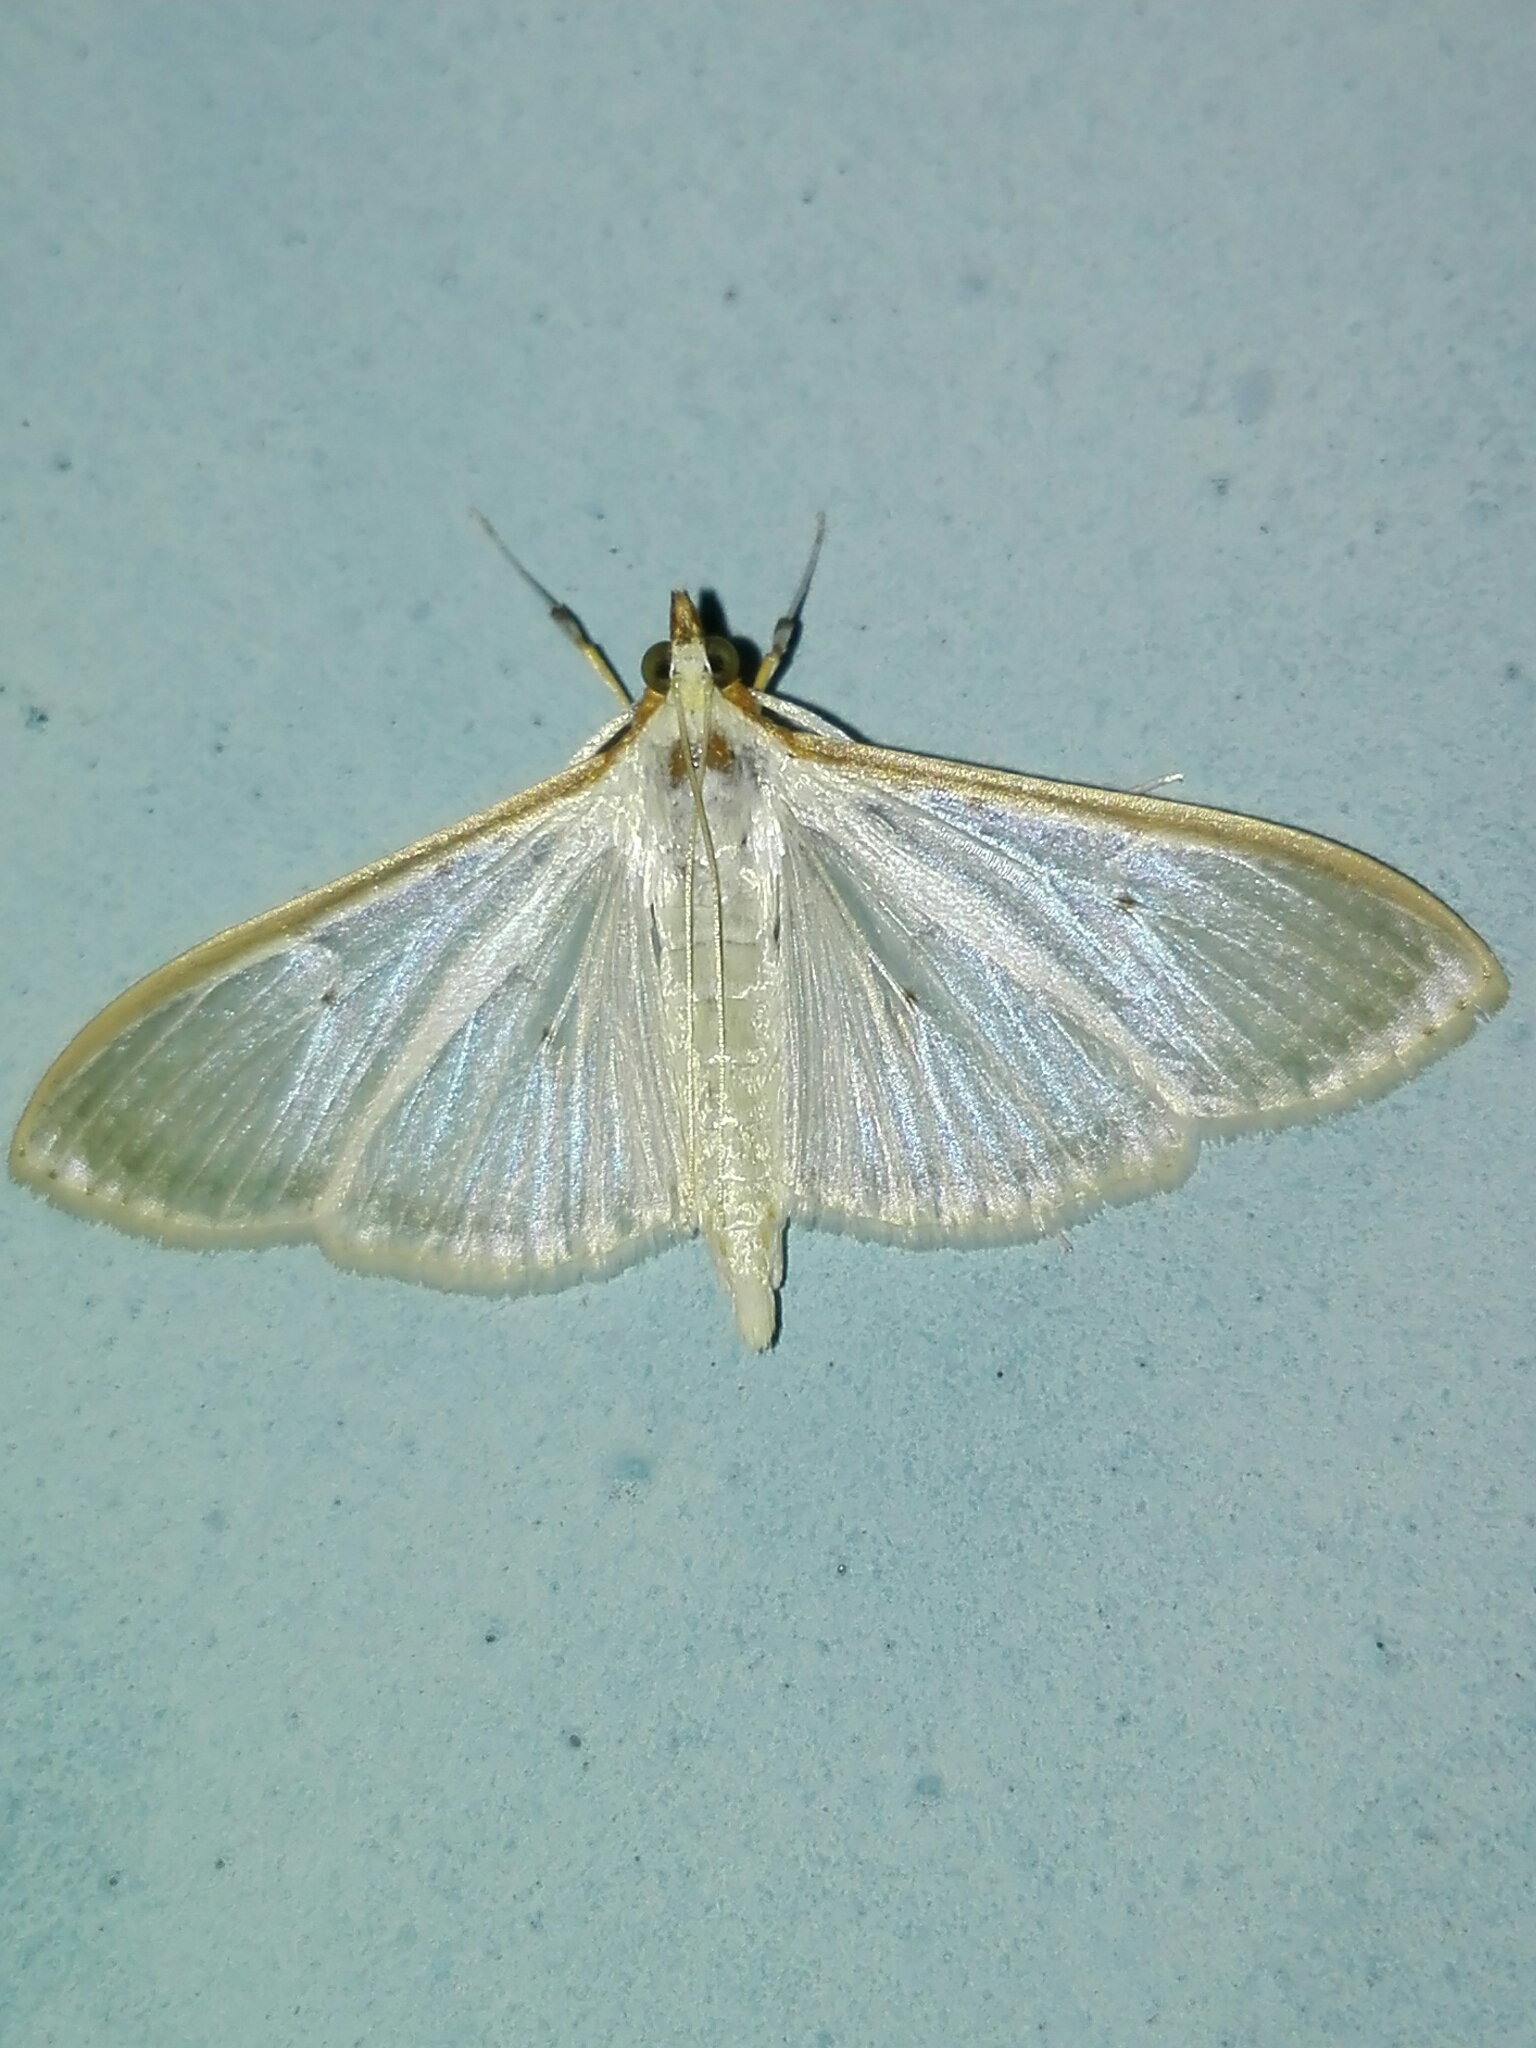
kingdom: Animalia
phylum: Arthropoda
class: Insecta
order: Lepidoptera
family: Crambidae
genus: Palpita
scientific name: Palpita quadristigmalis
